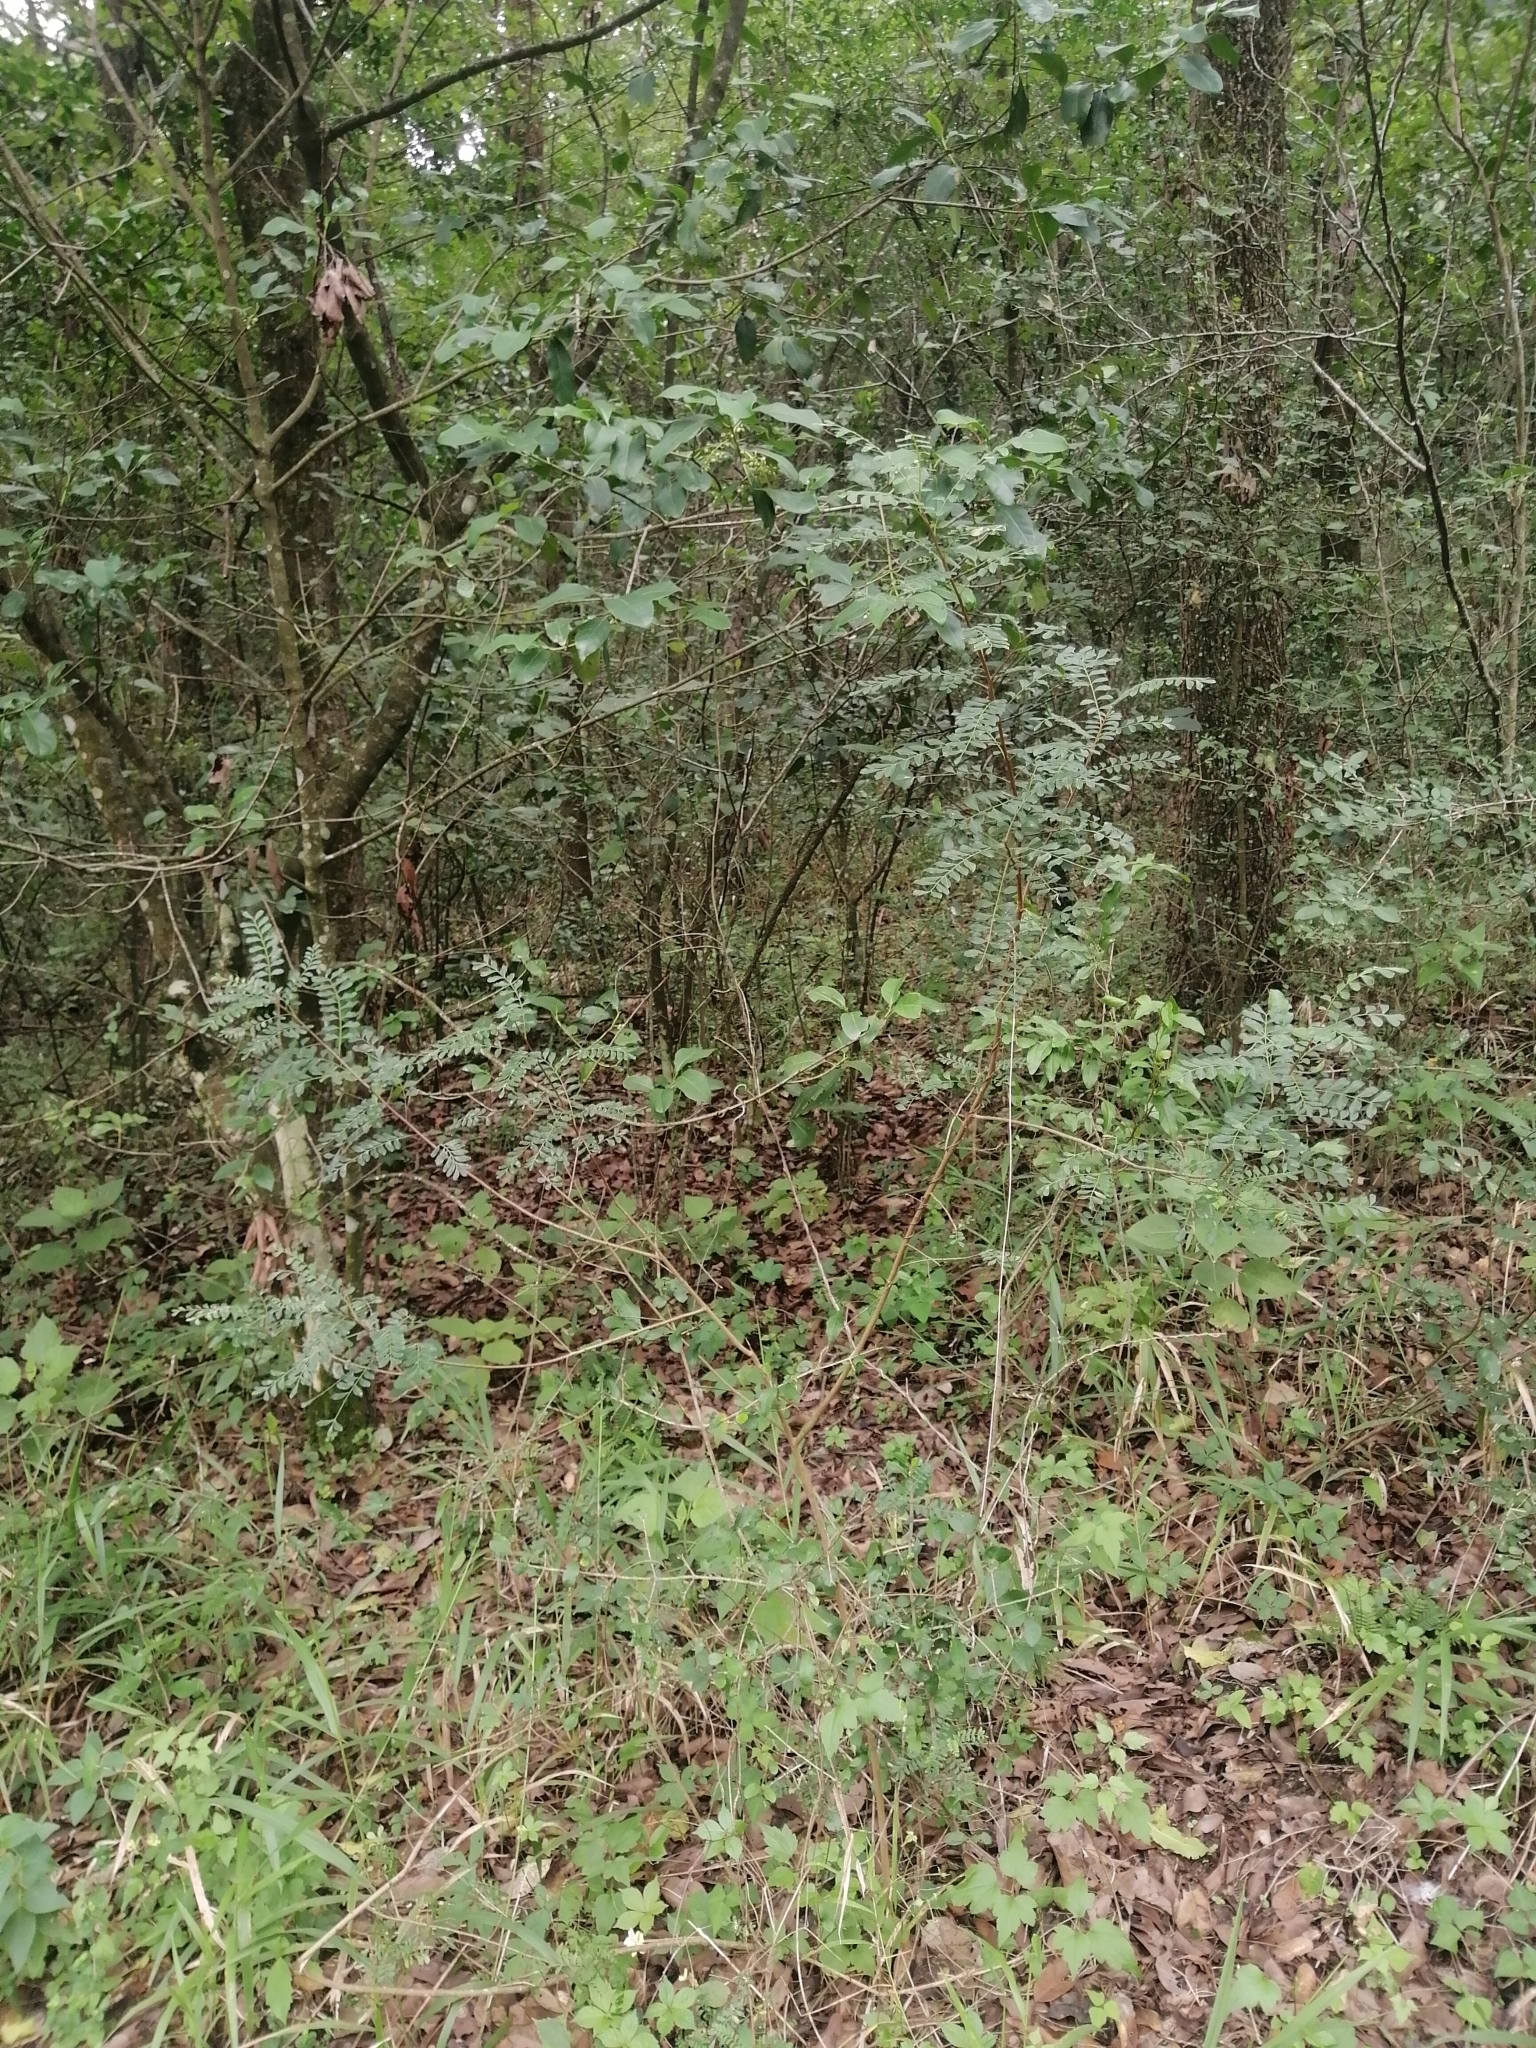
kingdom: Plantae
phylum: Tracheophyta
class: Magnoliopsida
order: Sapindales
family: Anacardiaceae
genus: Pistacia
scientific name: Pistacia mexicana
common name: Mexican pistachio
